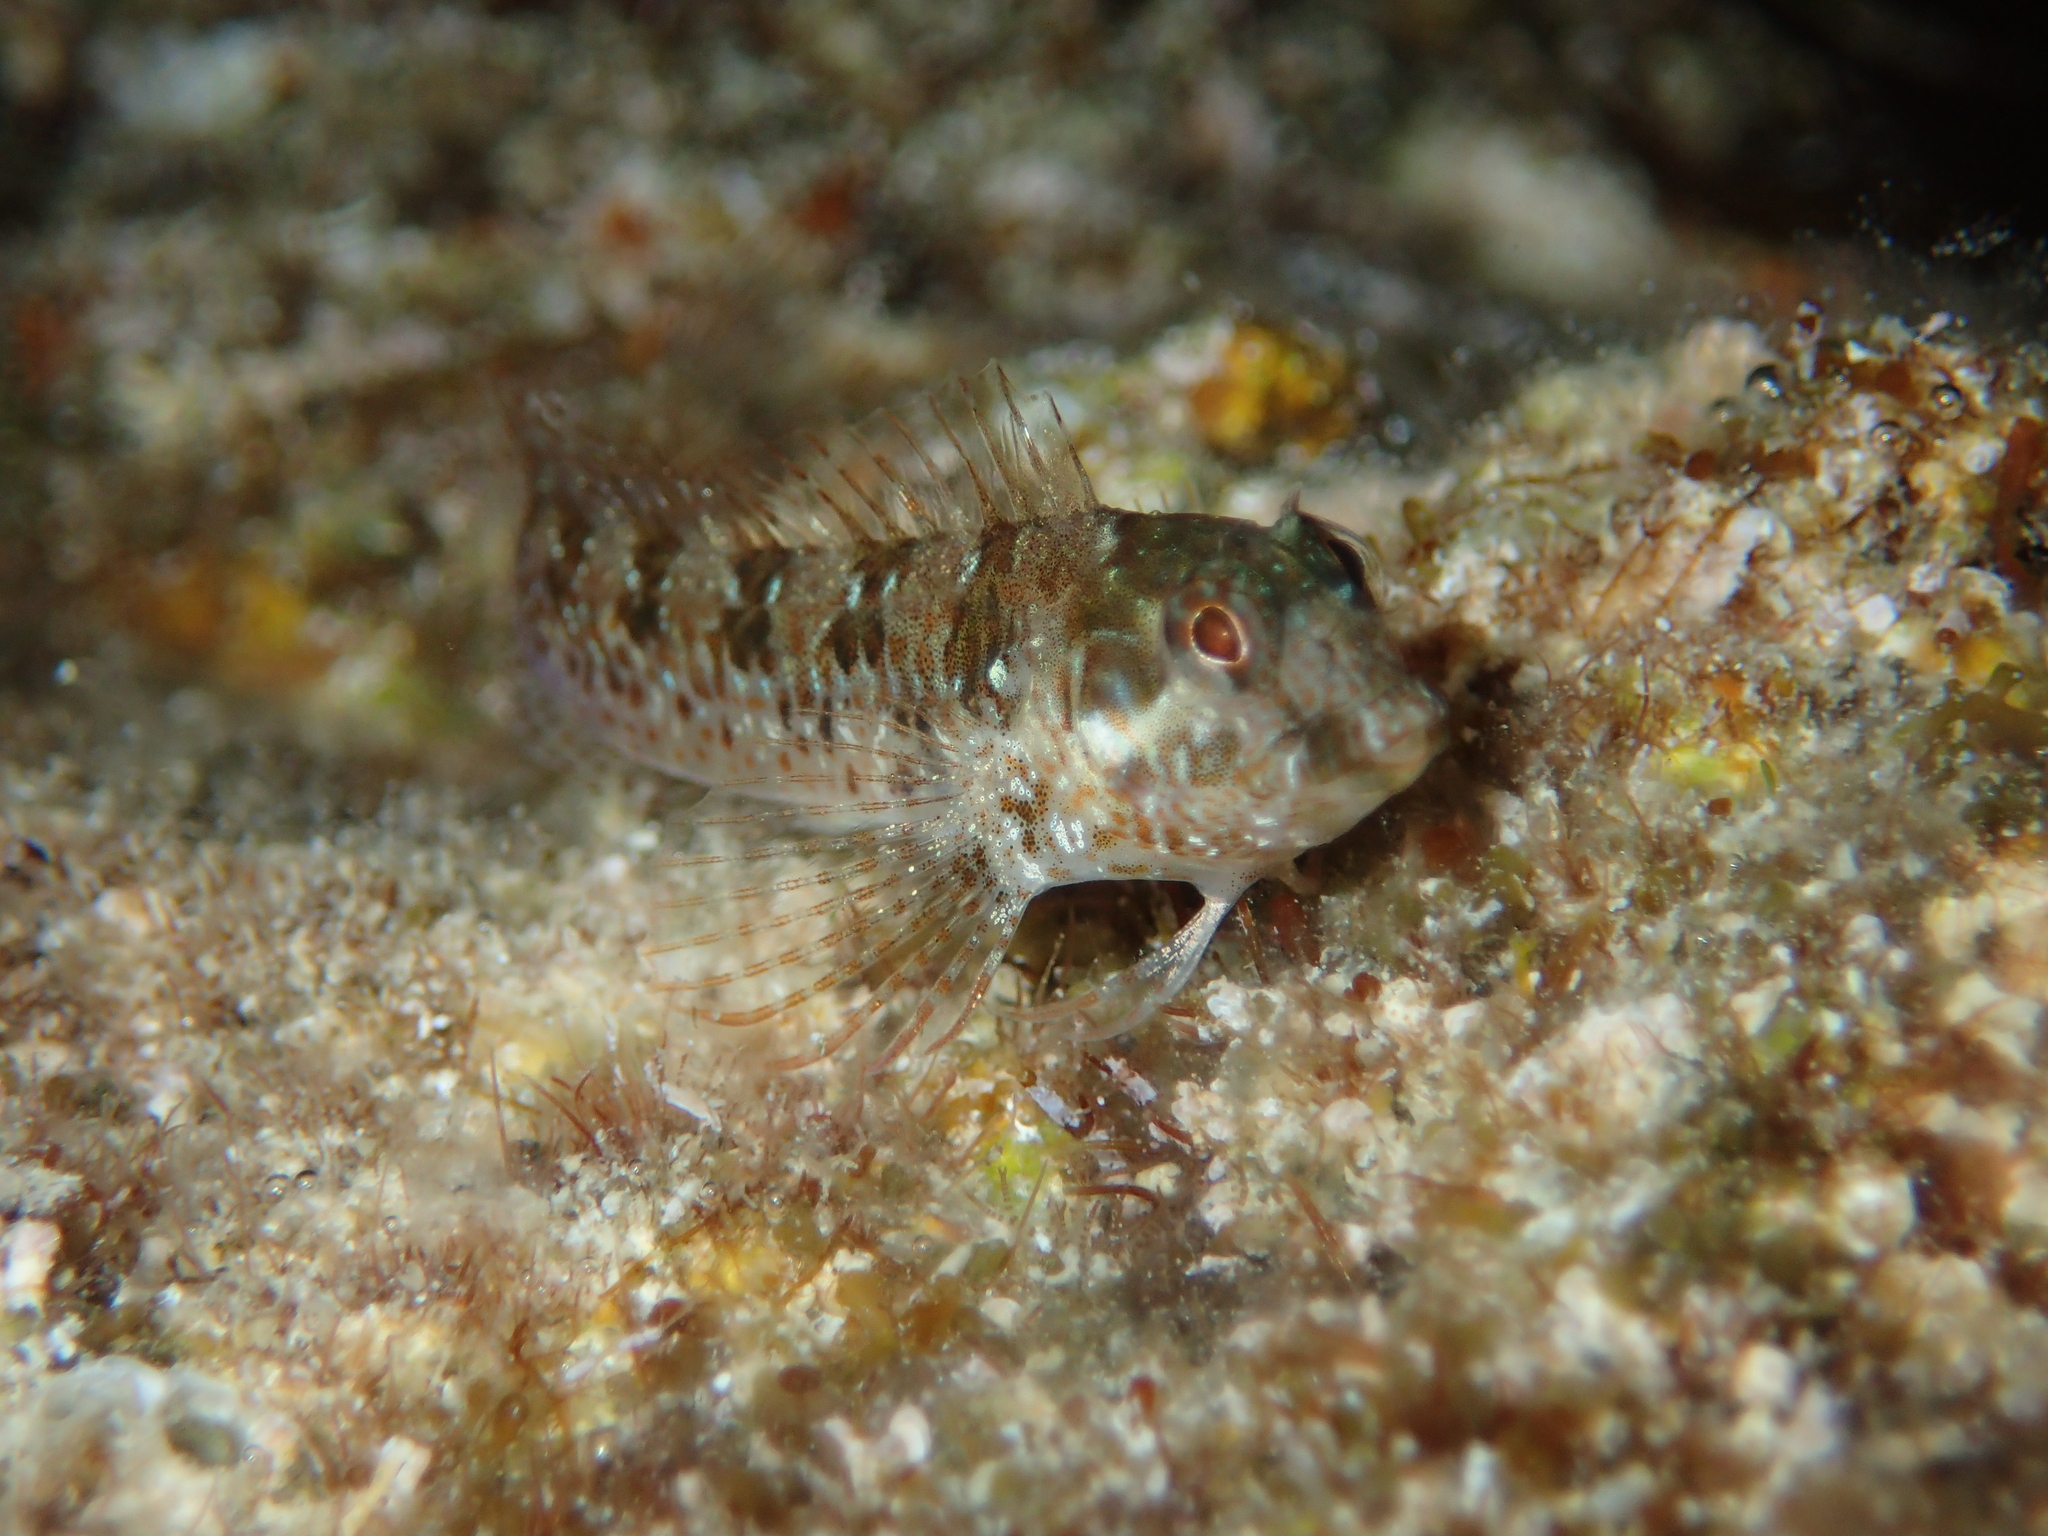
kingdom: Animalia
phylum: Chordata
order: Perciformes
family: Blenniidae
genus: Parablennius
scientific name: Parablennius incognitus
